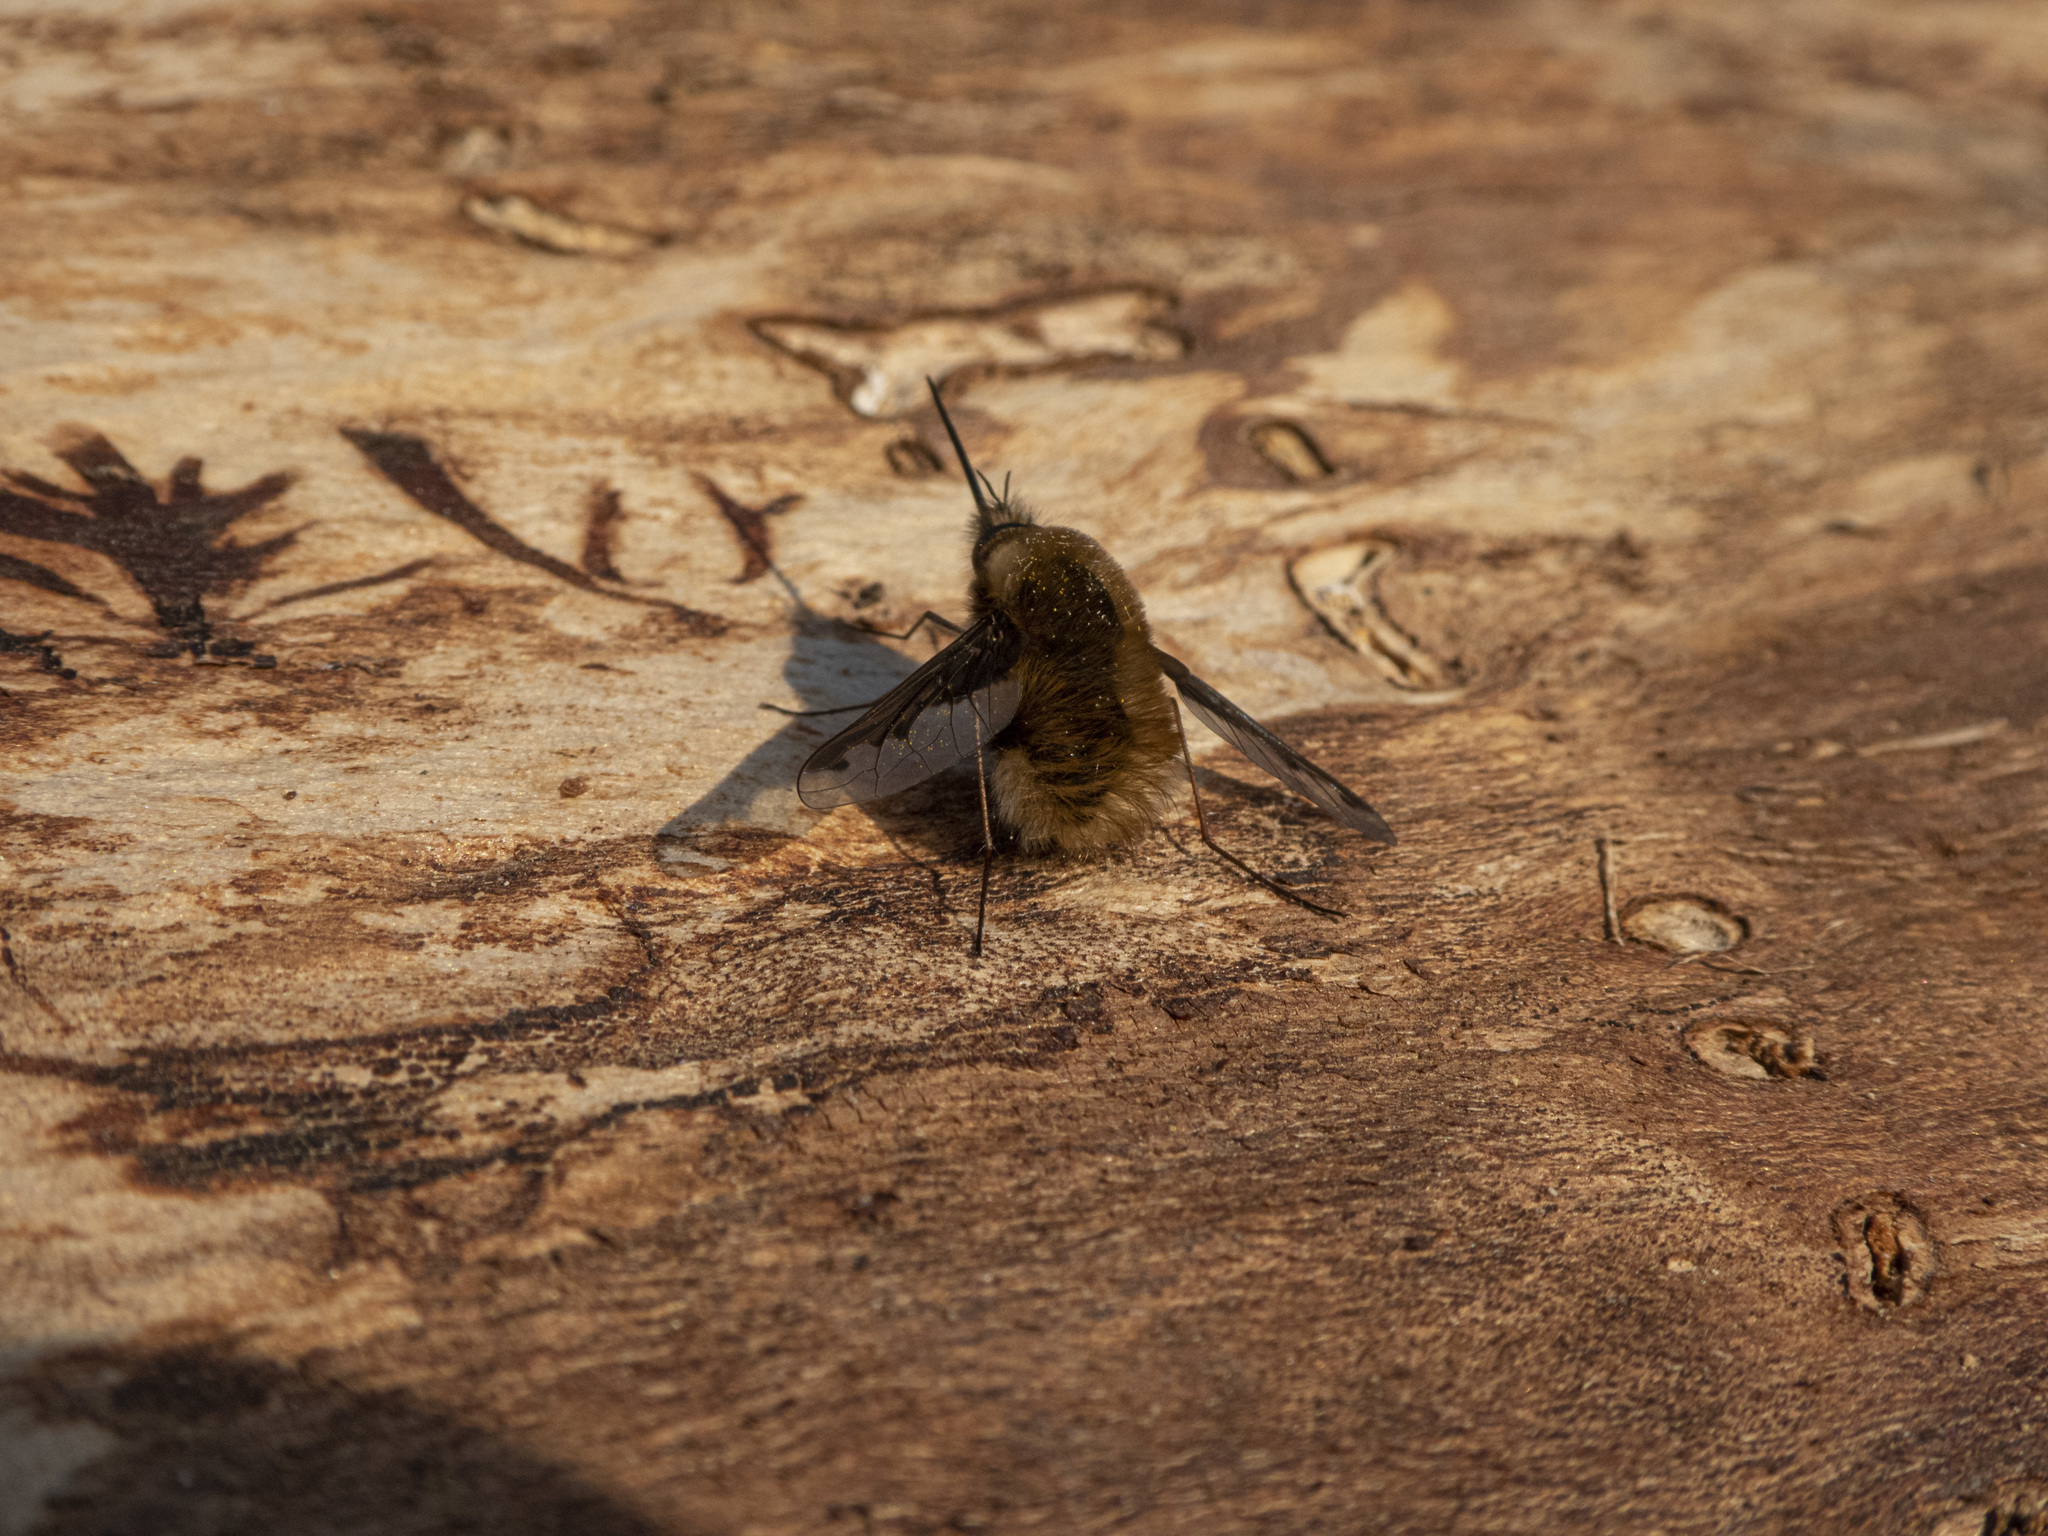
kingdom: Animalia
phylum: Arthropoda
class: Insecta
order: Diptera
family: Bombyliidae
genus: Bombylius
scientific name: Bombylius major
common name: Bee fly
